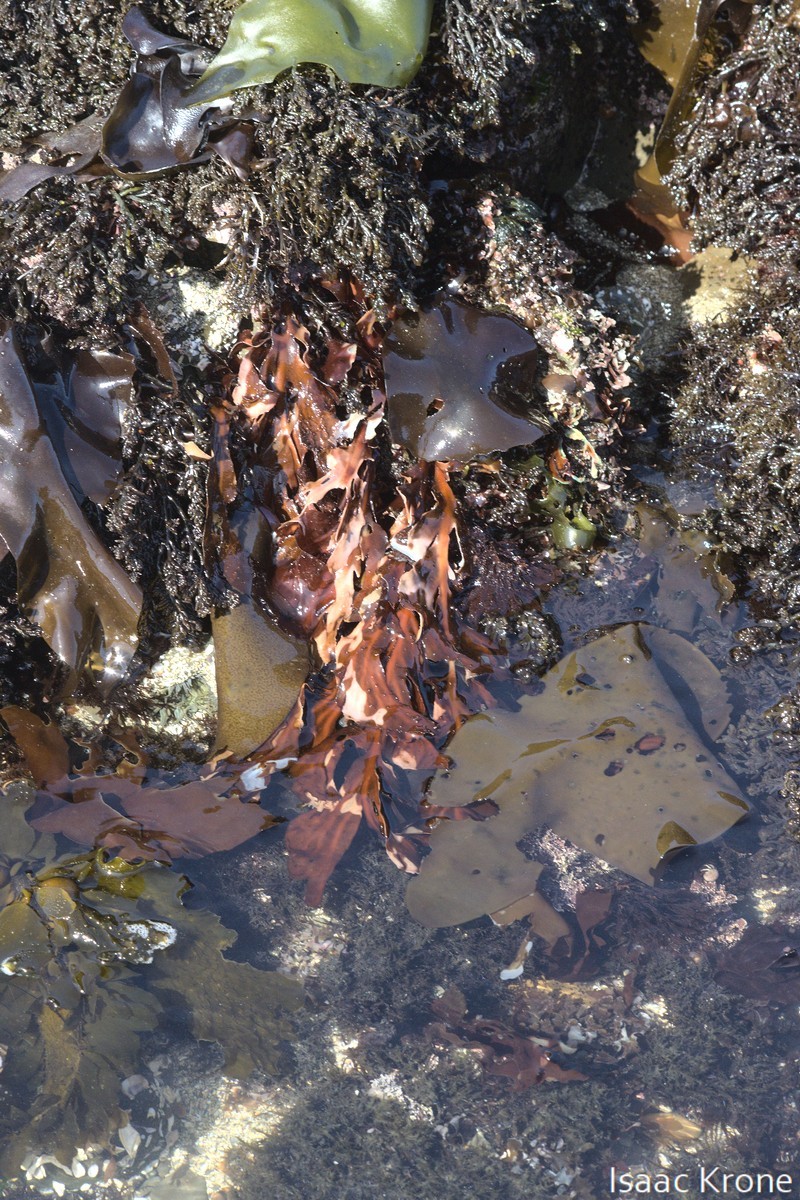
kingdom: Plantae
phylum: Rhodophyta
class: Florideophyceae
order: Gigartinales
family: Kallymeniaceae
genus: Erythrophyllum
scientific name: Erythrophyllum delesserioides
